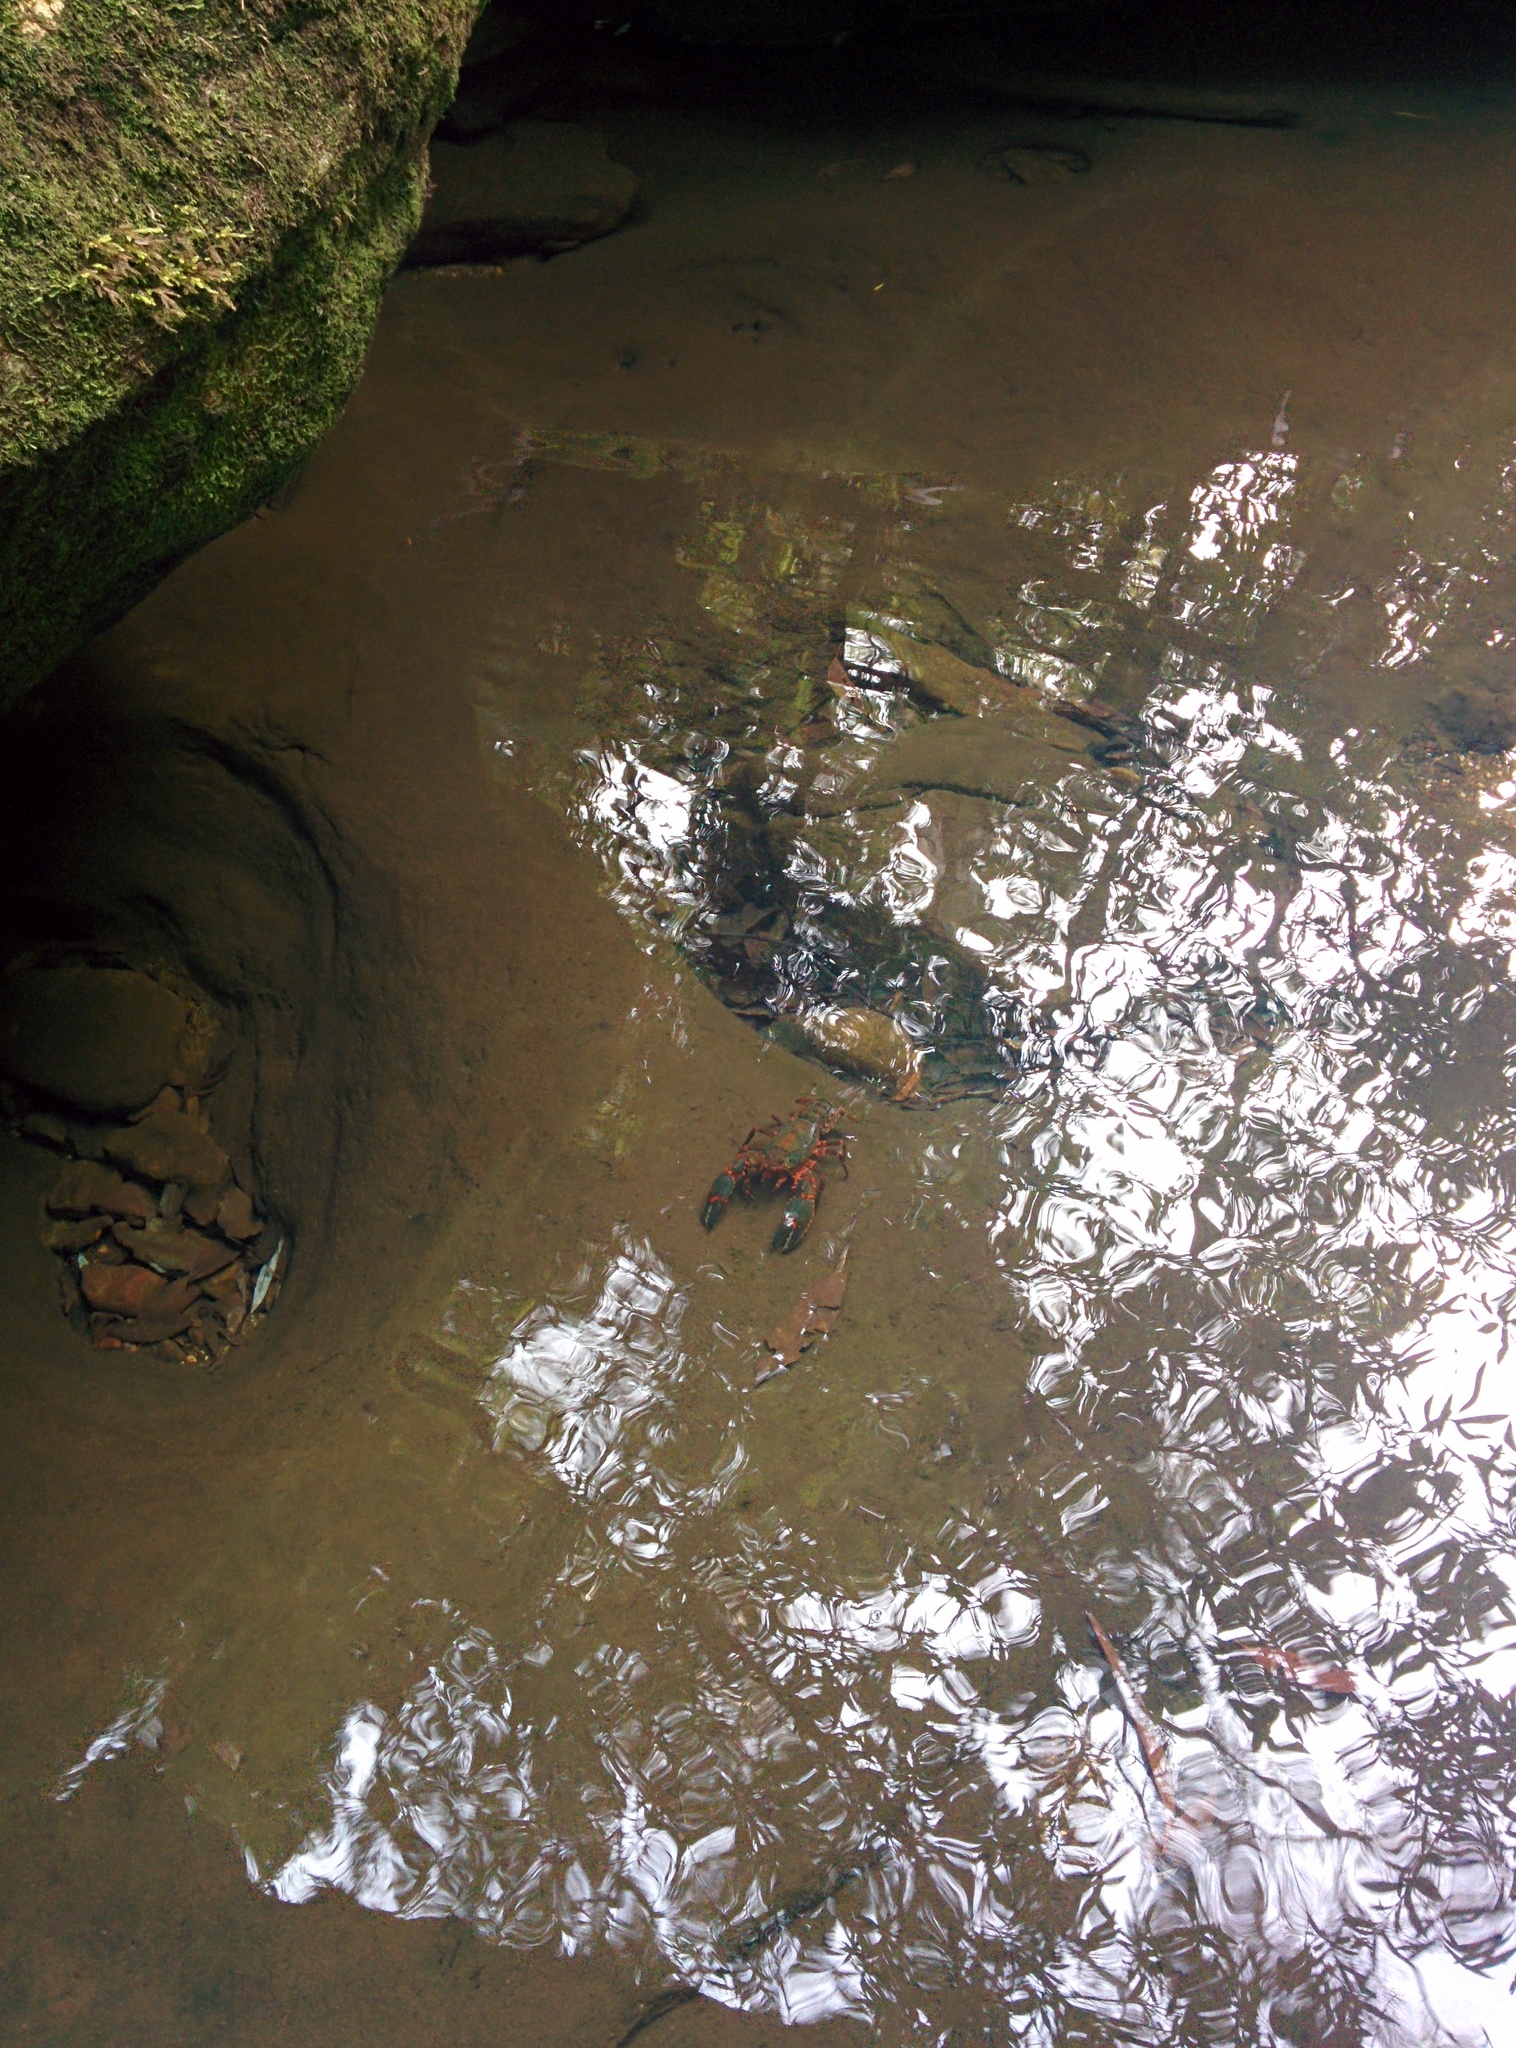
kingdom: Animalia
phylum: Arthropoda
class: Malacostraca
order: Decapoda
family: Parastacidae
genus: Euastacus
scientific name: Euastacus spinifer
